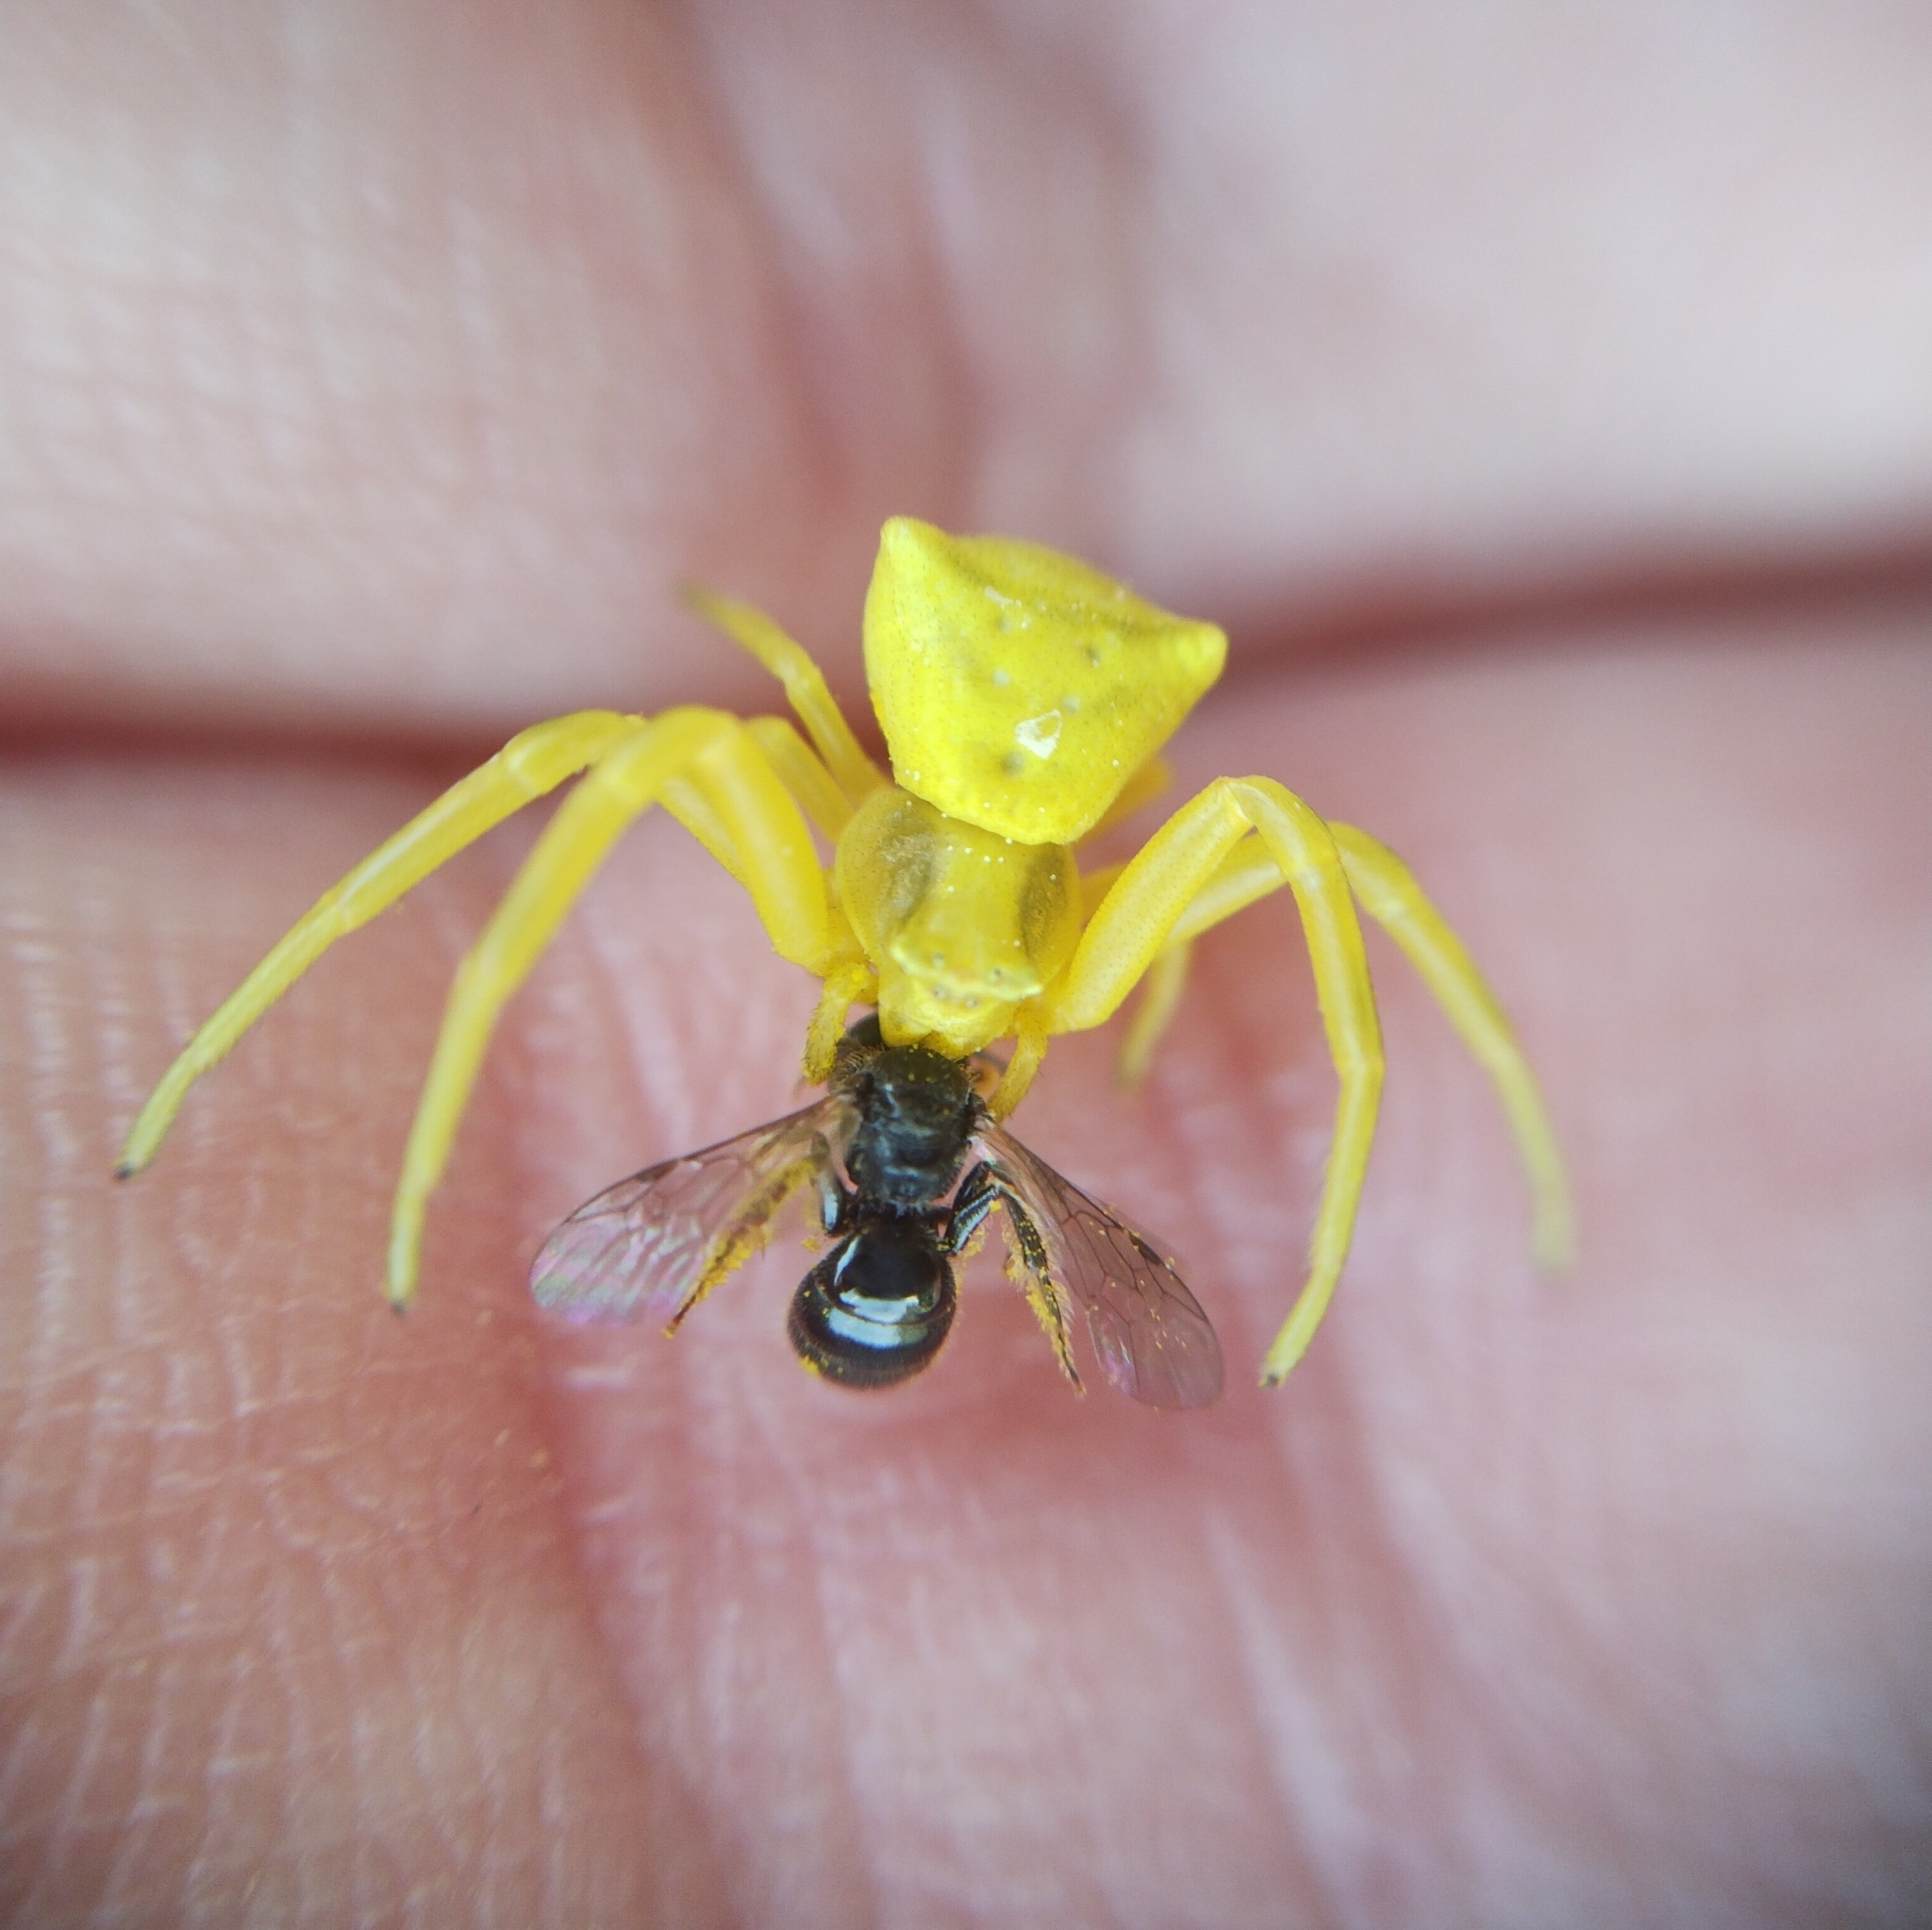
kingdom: Animalia
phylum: Arthropoda
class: Arachnida
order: Araneae
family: Thomisidae
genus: Thomisus
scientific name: Thomisus onustus
